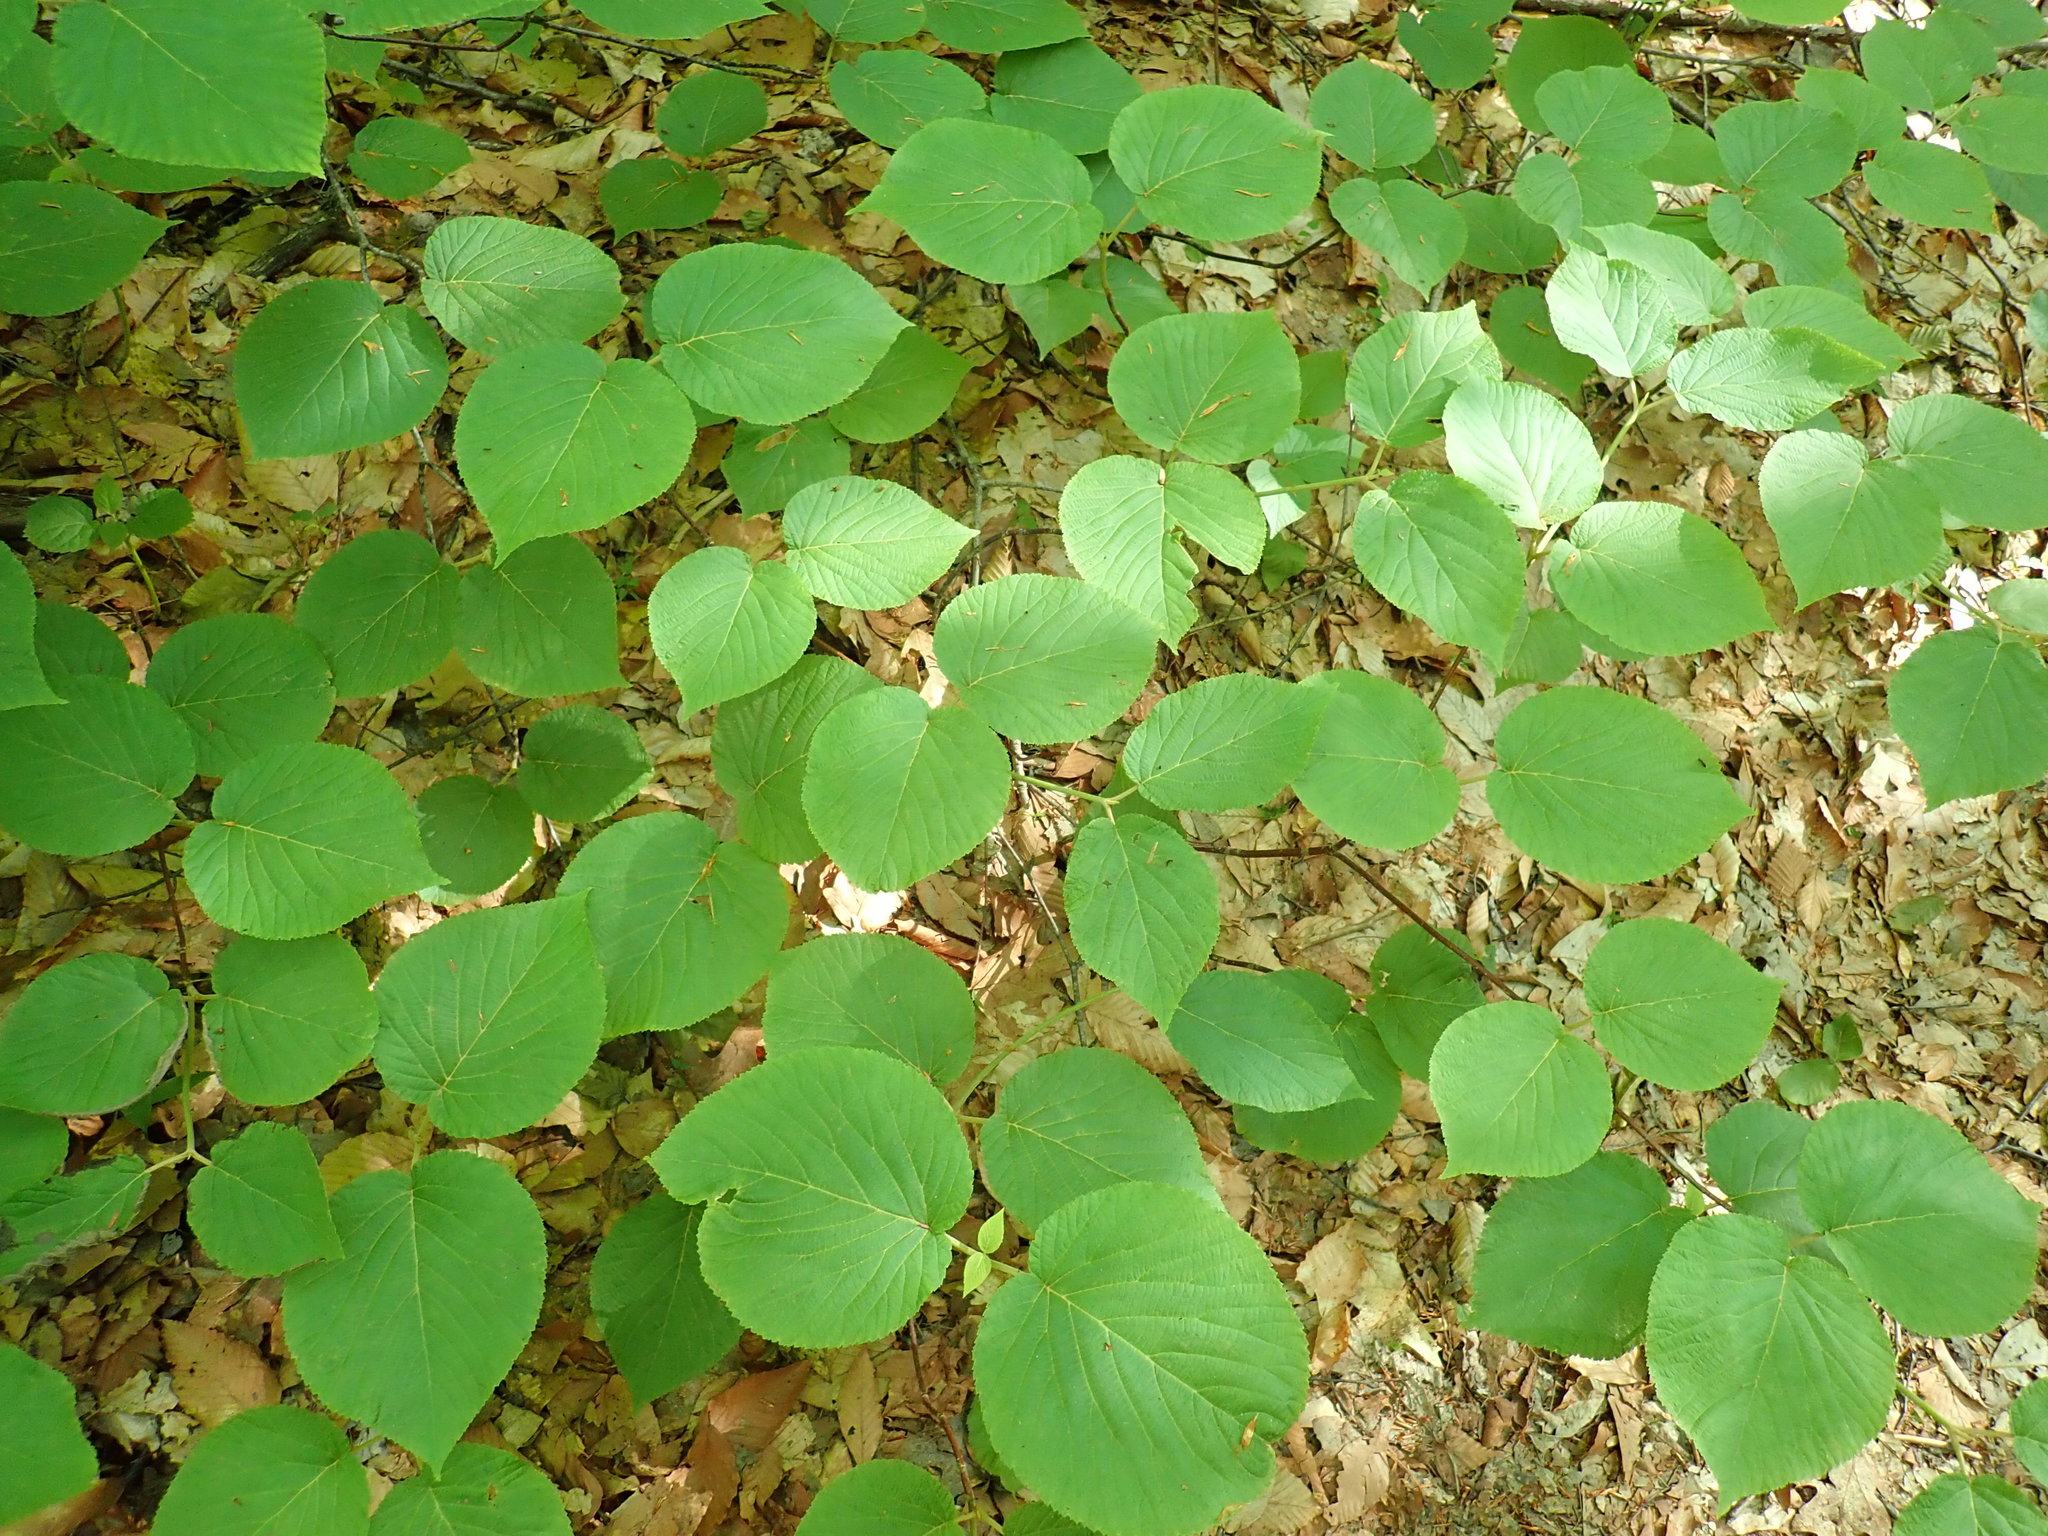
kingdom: Plantae
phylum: Tracheophyta
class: Magnoliopsida
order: Dipsacales
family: Viburnaceae
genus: Viburnum
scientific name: Viburnum lantanoides
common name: Hobblebush
